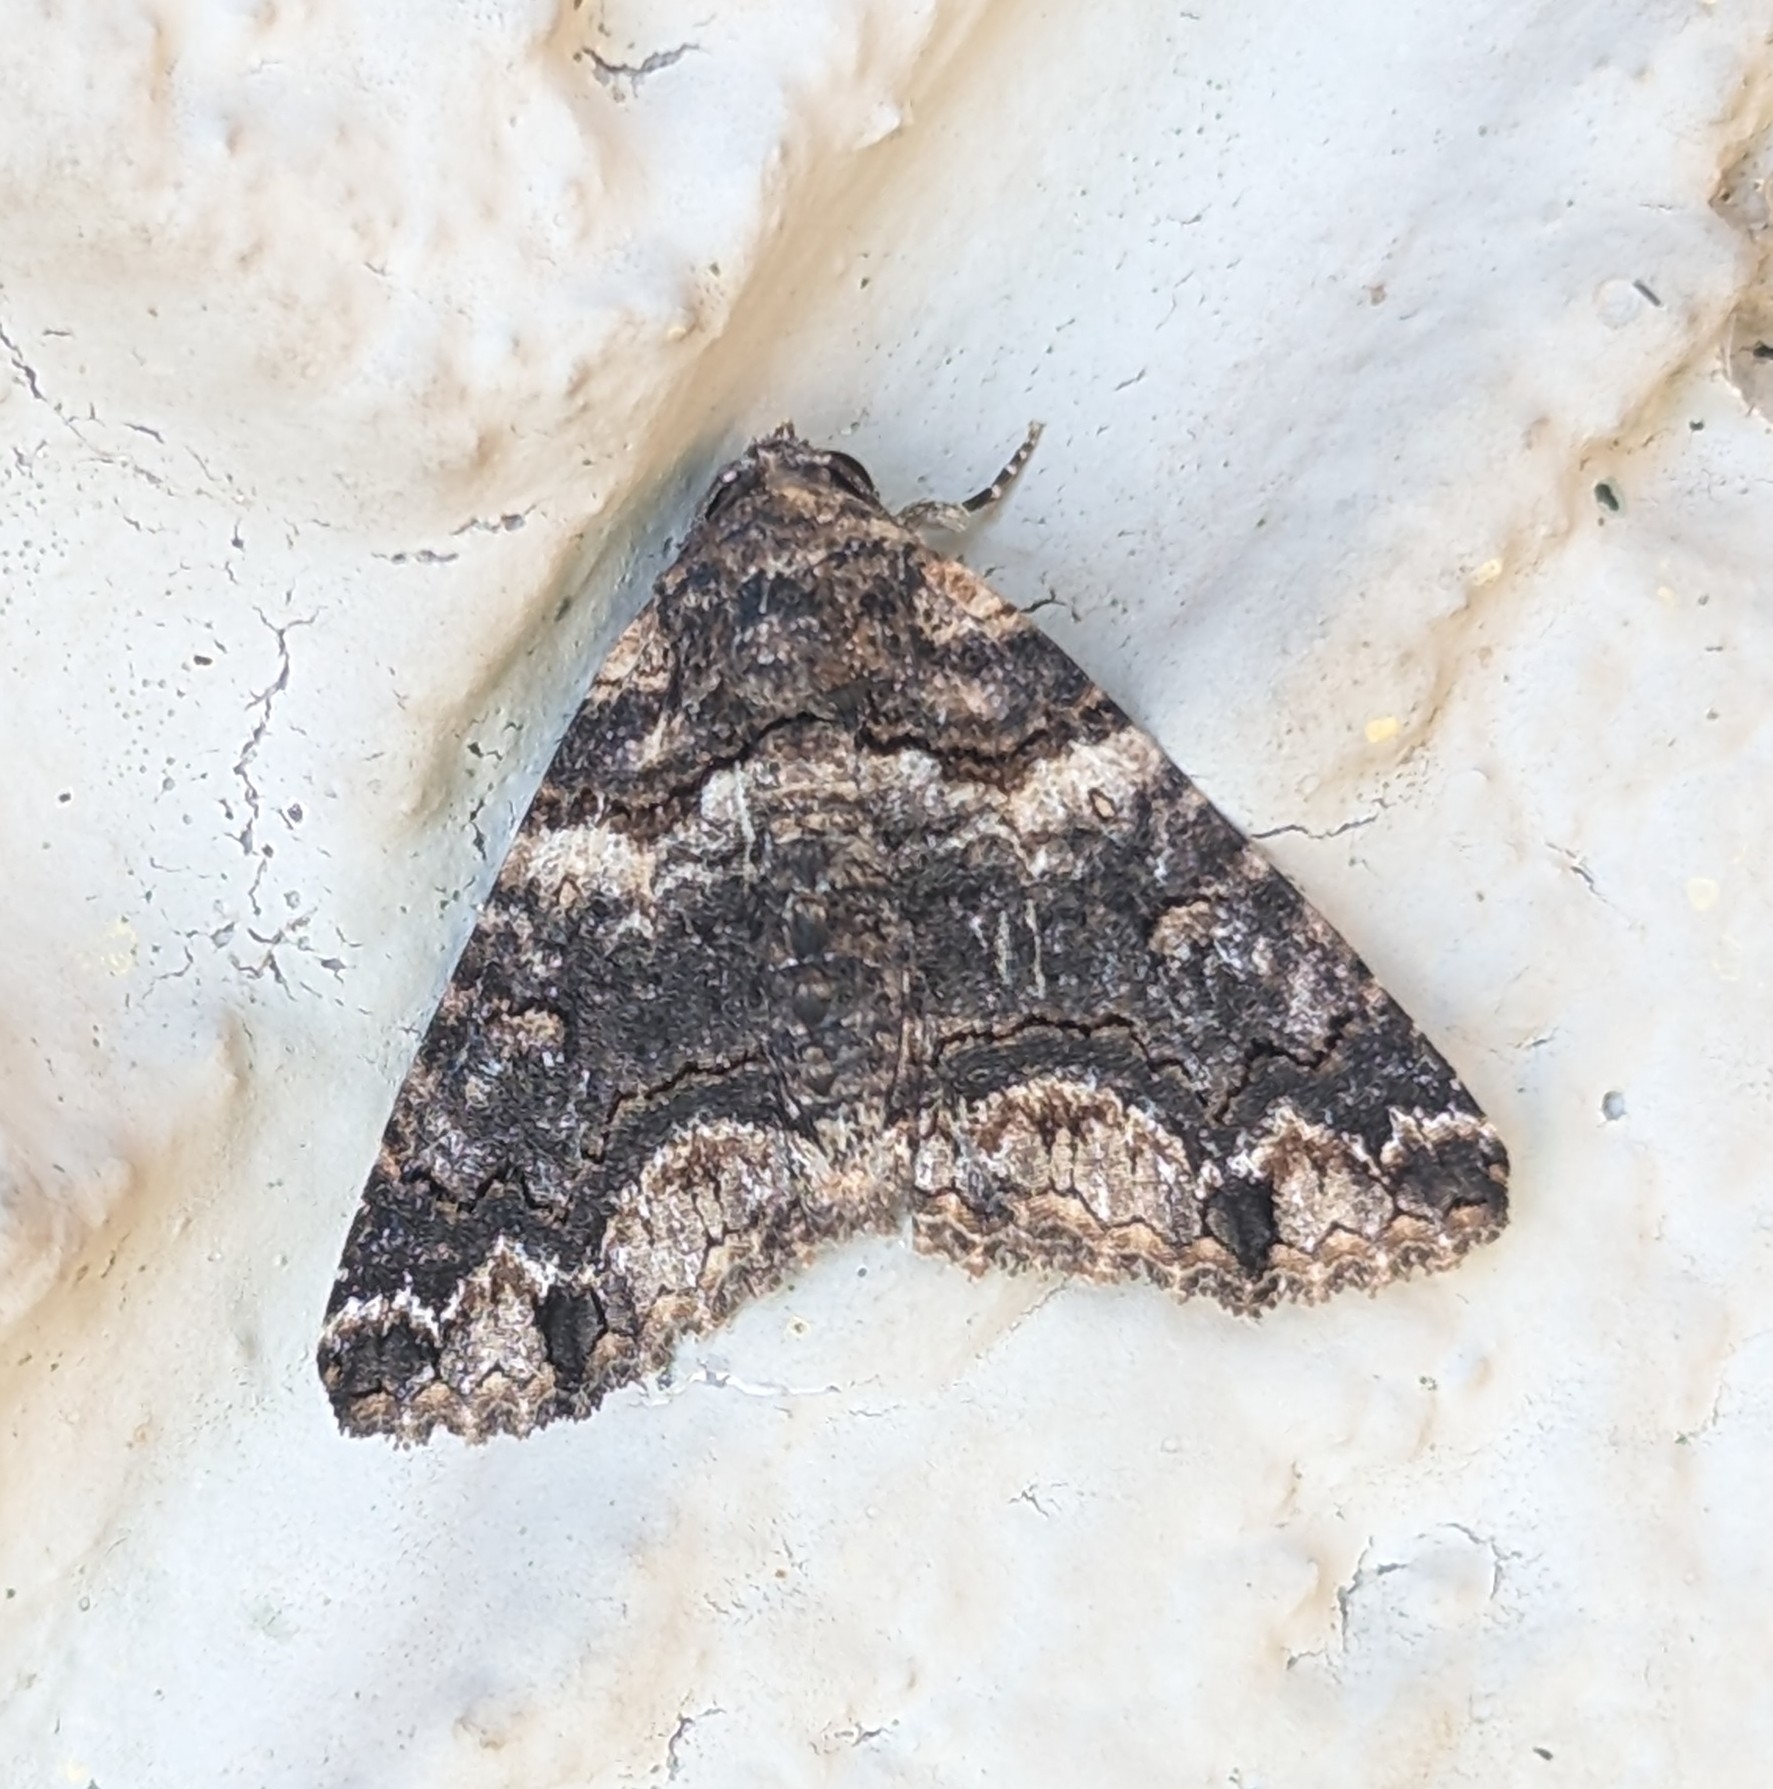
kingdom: Animalia
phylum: Arthropoda
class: Insecta
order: Lepidoptera
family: Erebidae
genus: Pericyma
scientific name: Pericyma atrifusa
